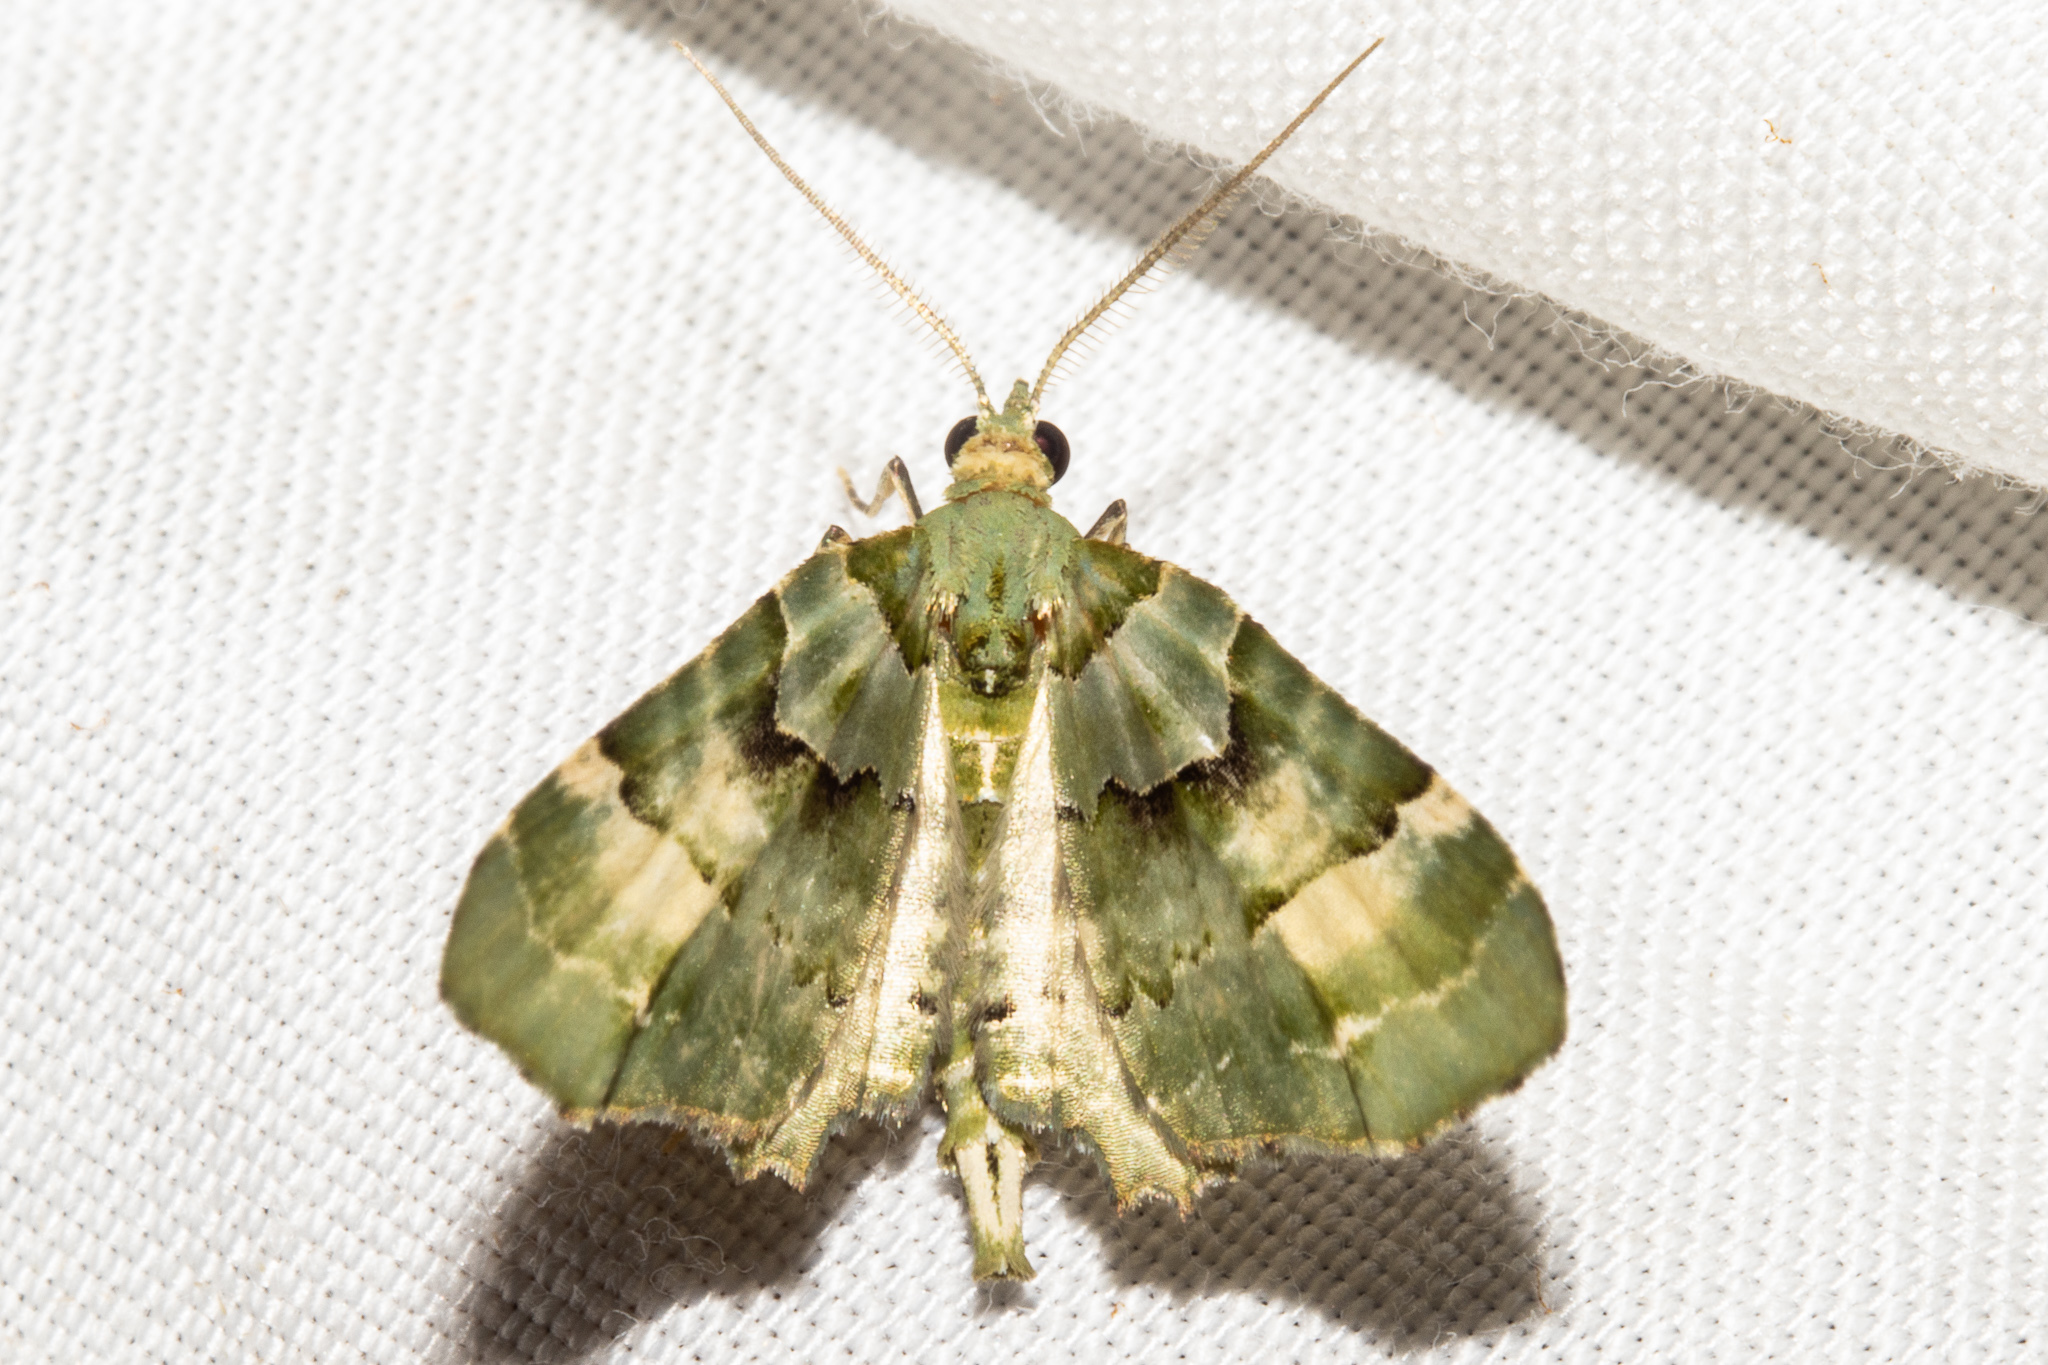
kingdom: Animalia
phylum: Arthropoda
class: Insecta
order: Lepidoptera
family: Geometridae
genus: Elvia
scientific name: Elvia glaucata
